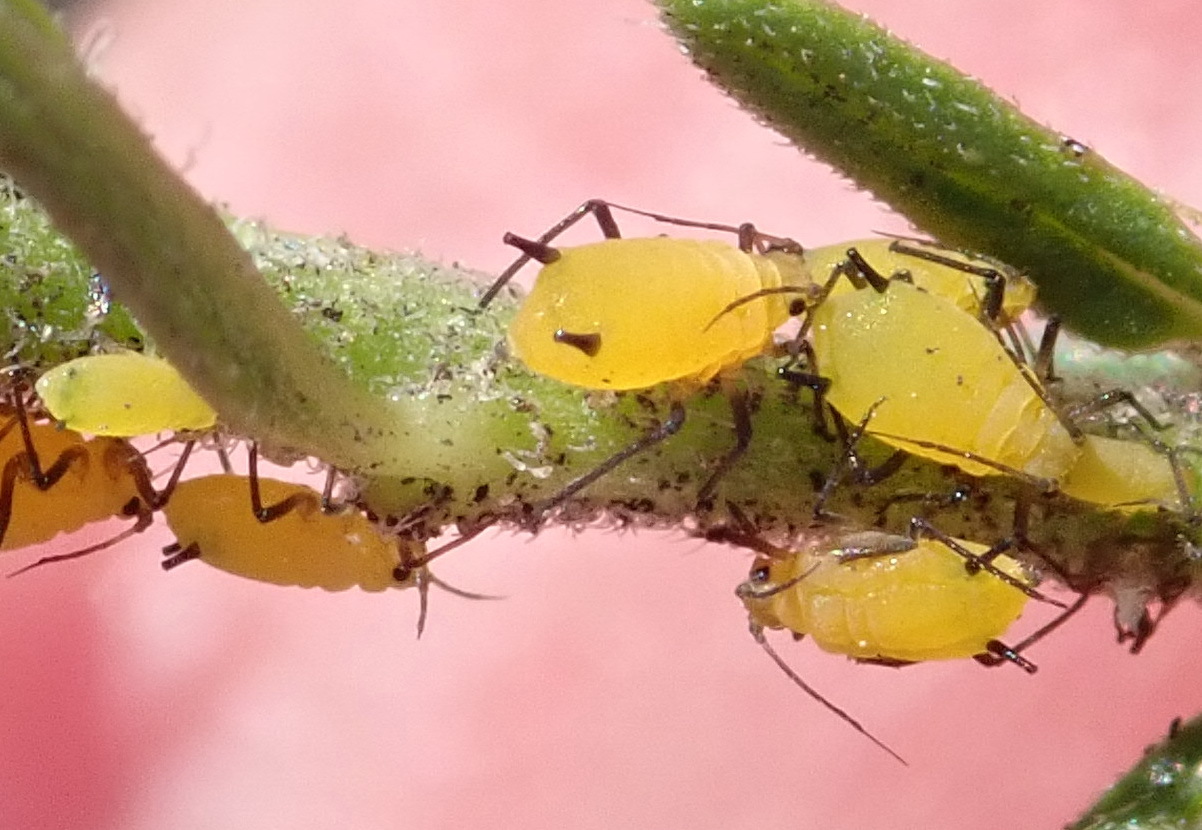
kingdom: Animalia
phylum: Arthropoda
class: Insecta
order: Hemiptera
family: Aphididae
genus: Aphis
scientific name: Aphis nerii
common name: Oleander aphid
